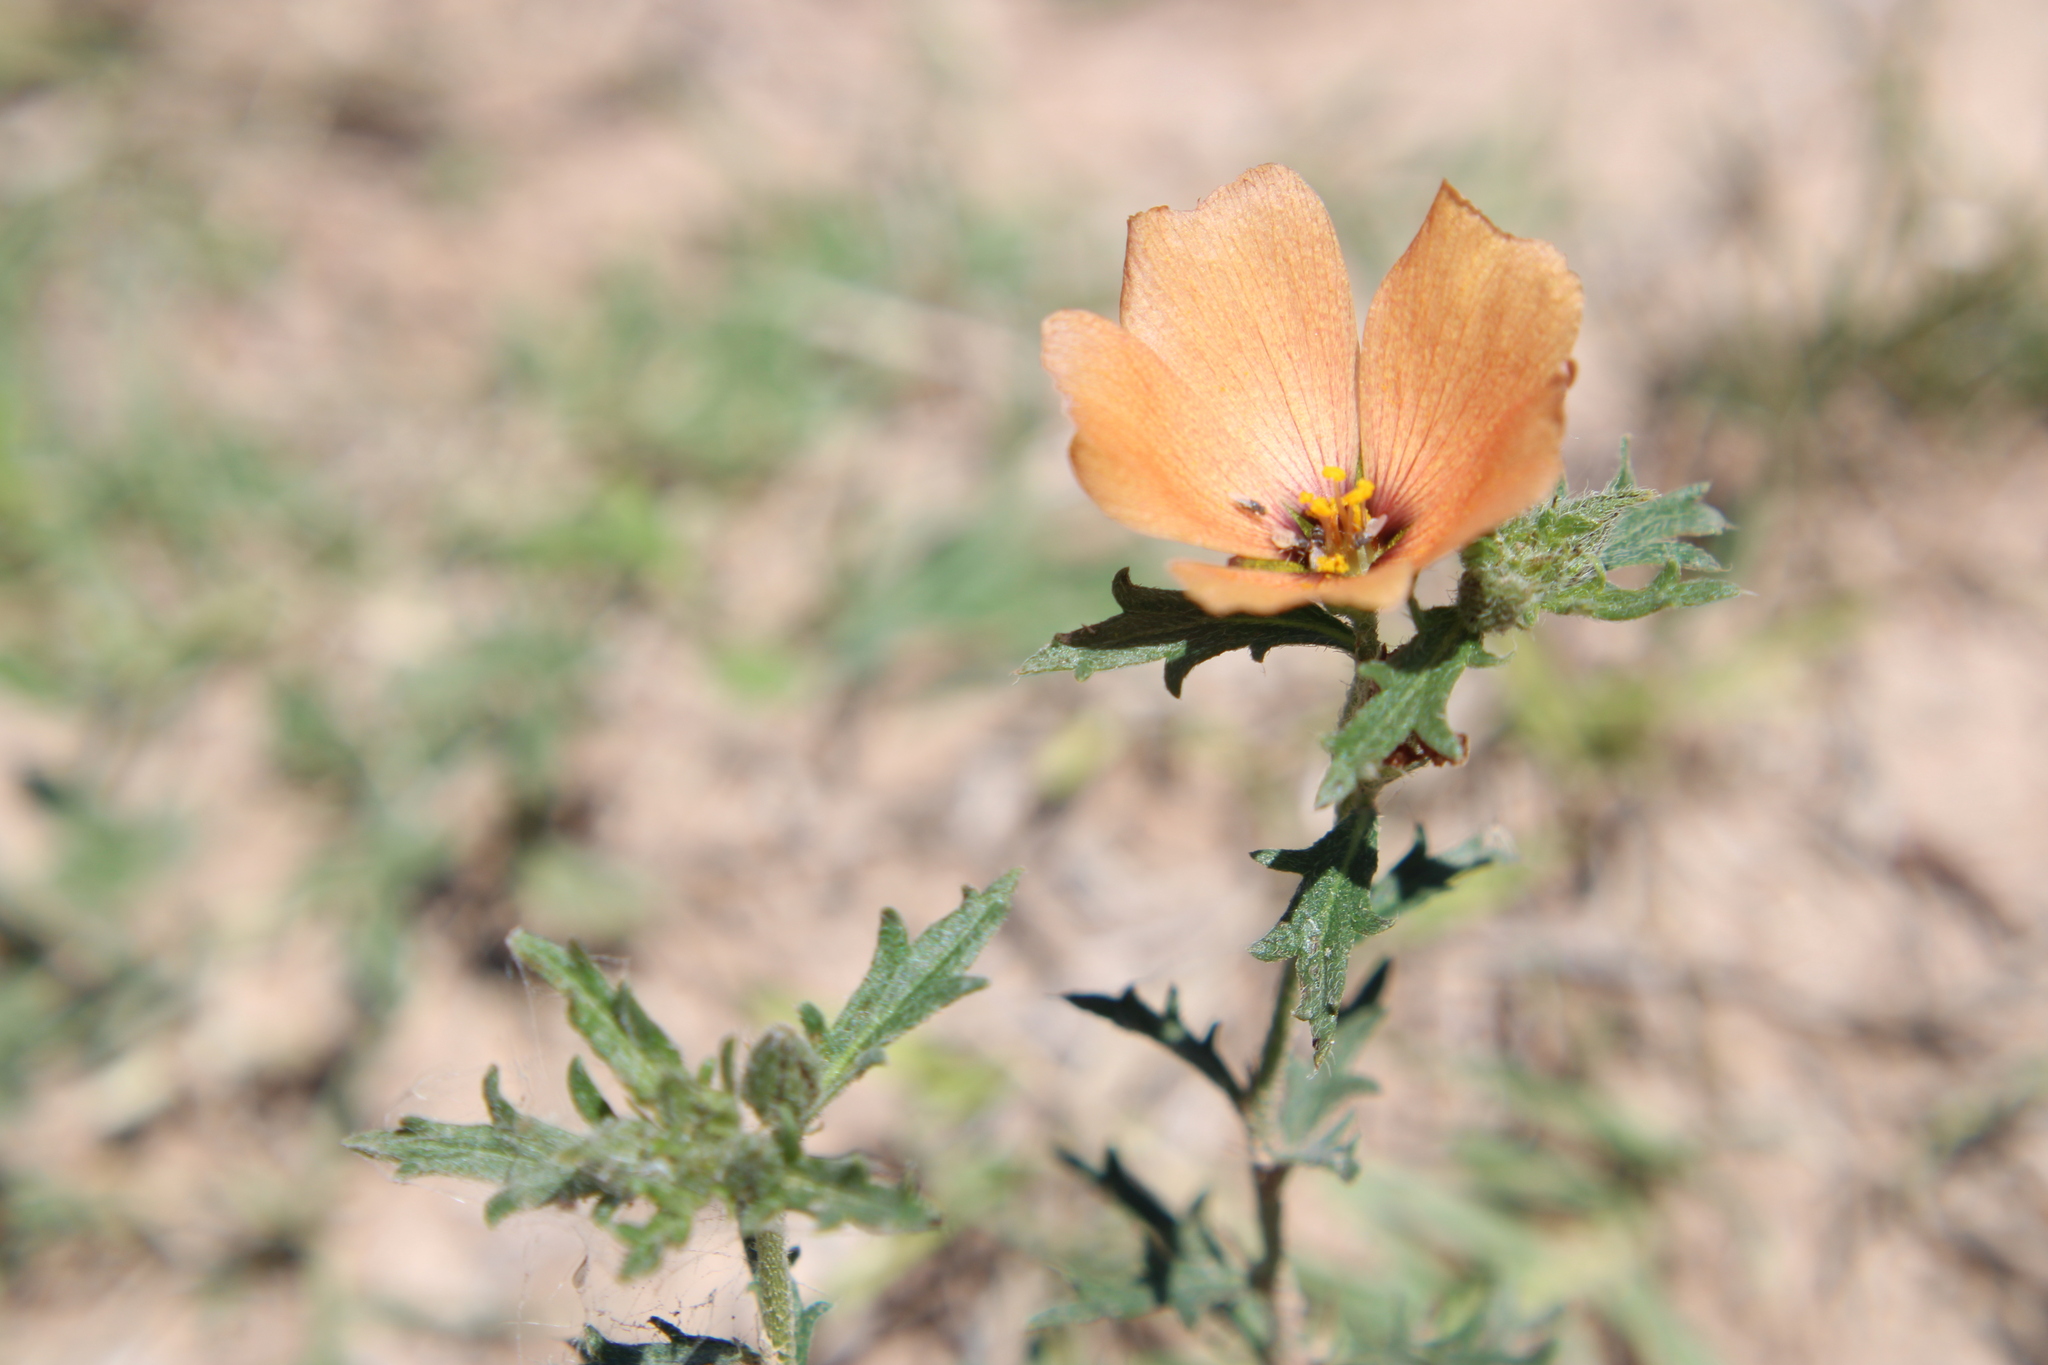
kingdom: Plantae
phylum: Tracheophyta
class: Magnoliopsida
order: Malpighiales
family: Turneraceae
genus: Turnera
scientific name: Turnera sidoides
